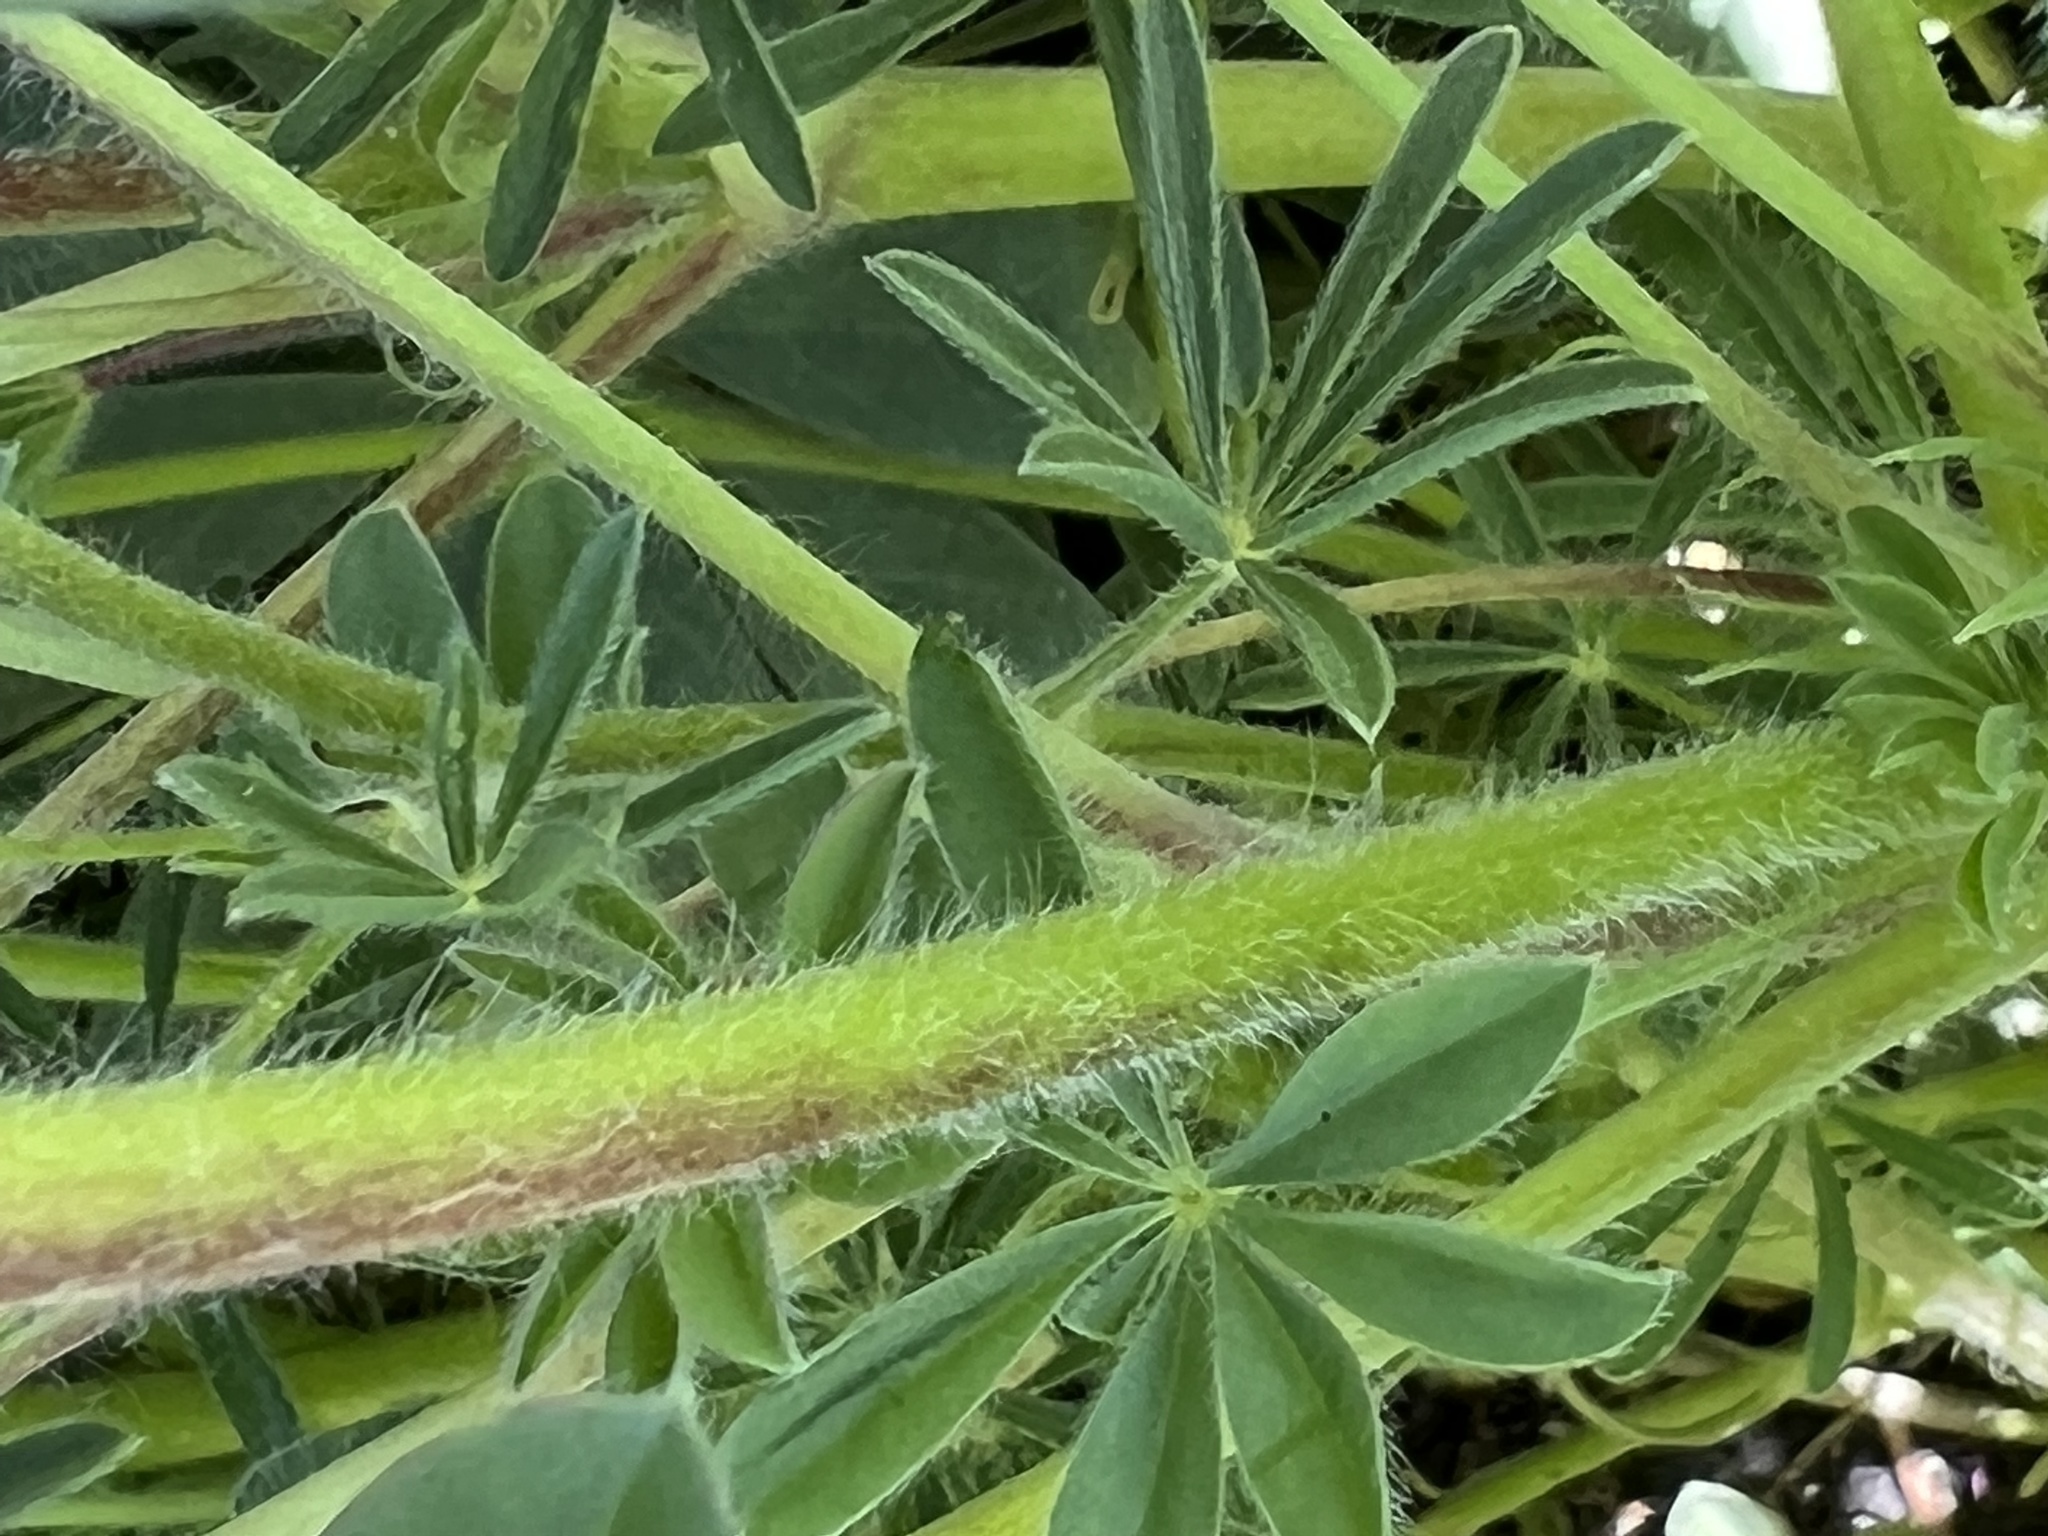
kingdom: Plantae
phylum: Tracheophyta
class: Magnoliopsida
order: Fabales
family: Fabaceae
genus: Lupinus
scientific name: Lupinus microcarpus
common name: Chick lupine
